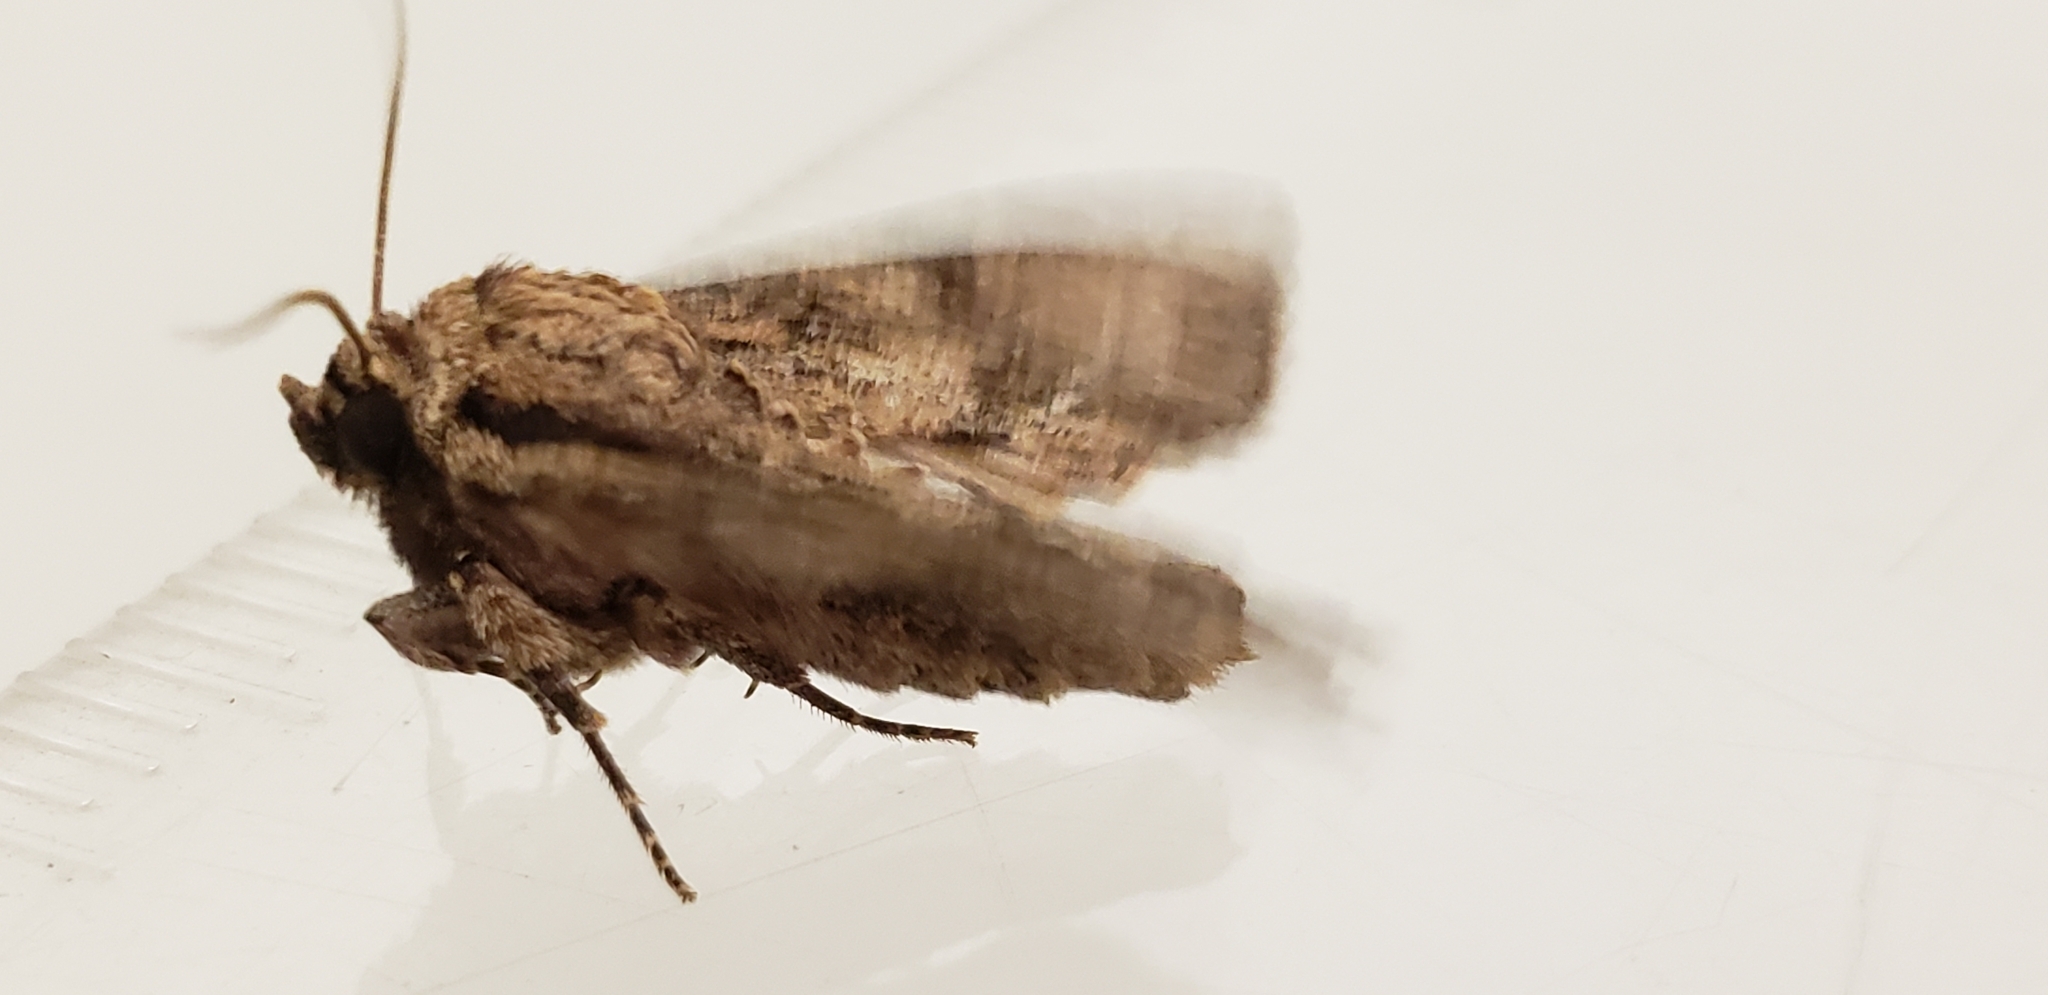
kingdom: Animalia
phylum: Arthropoda
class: Insecta
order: Lepidoptera
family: Noctuidae
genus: Achatia
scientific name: Achatia confusa
